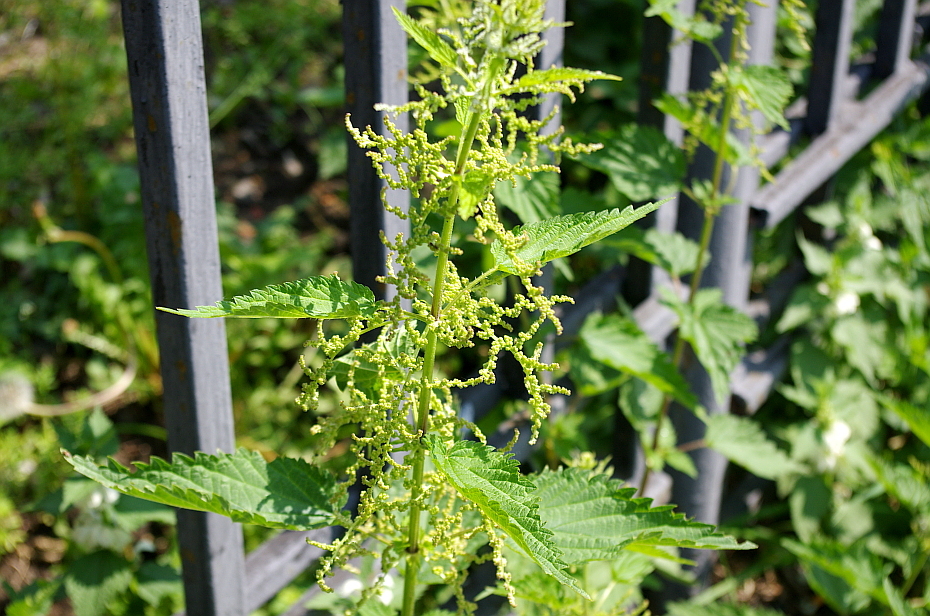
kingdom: Plantae
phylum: Tracheophyta
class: Magnoliopsida
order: Rosales
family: Urticaceae
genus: Urtica
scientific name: Urtica dioica
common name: Common nettle
